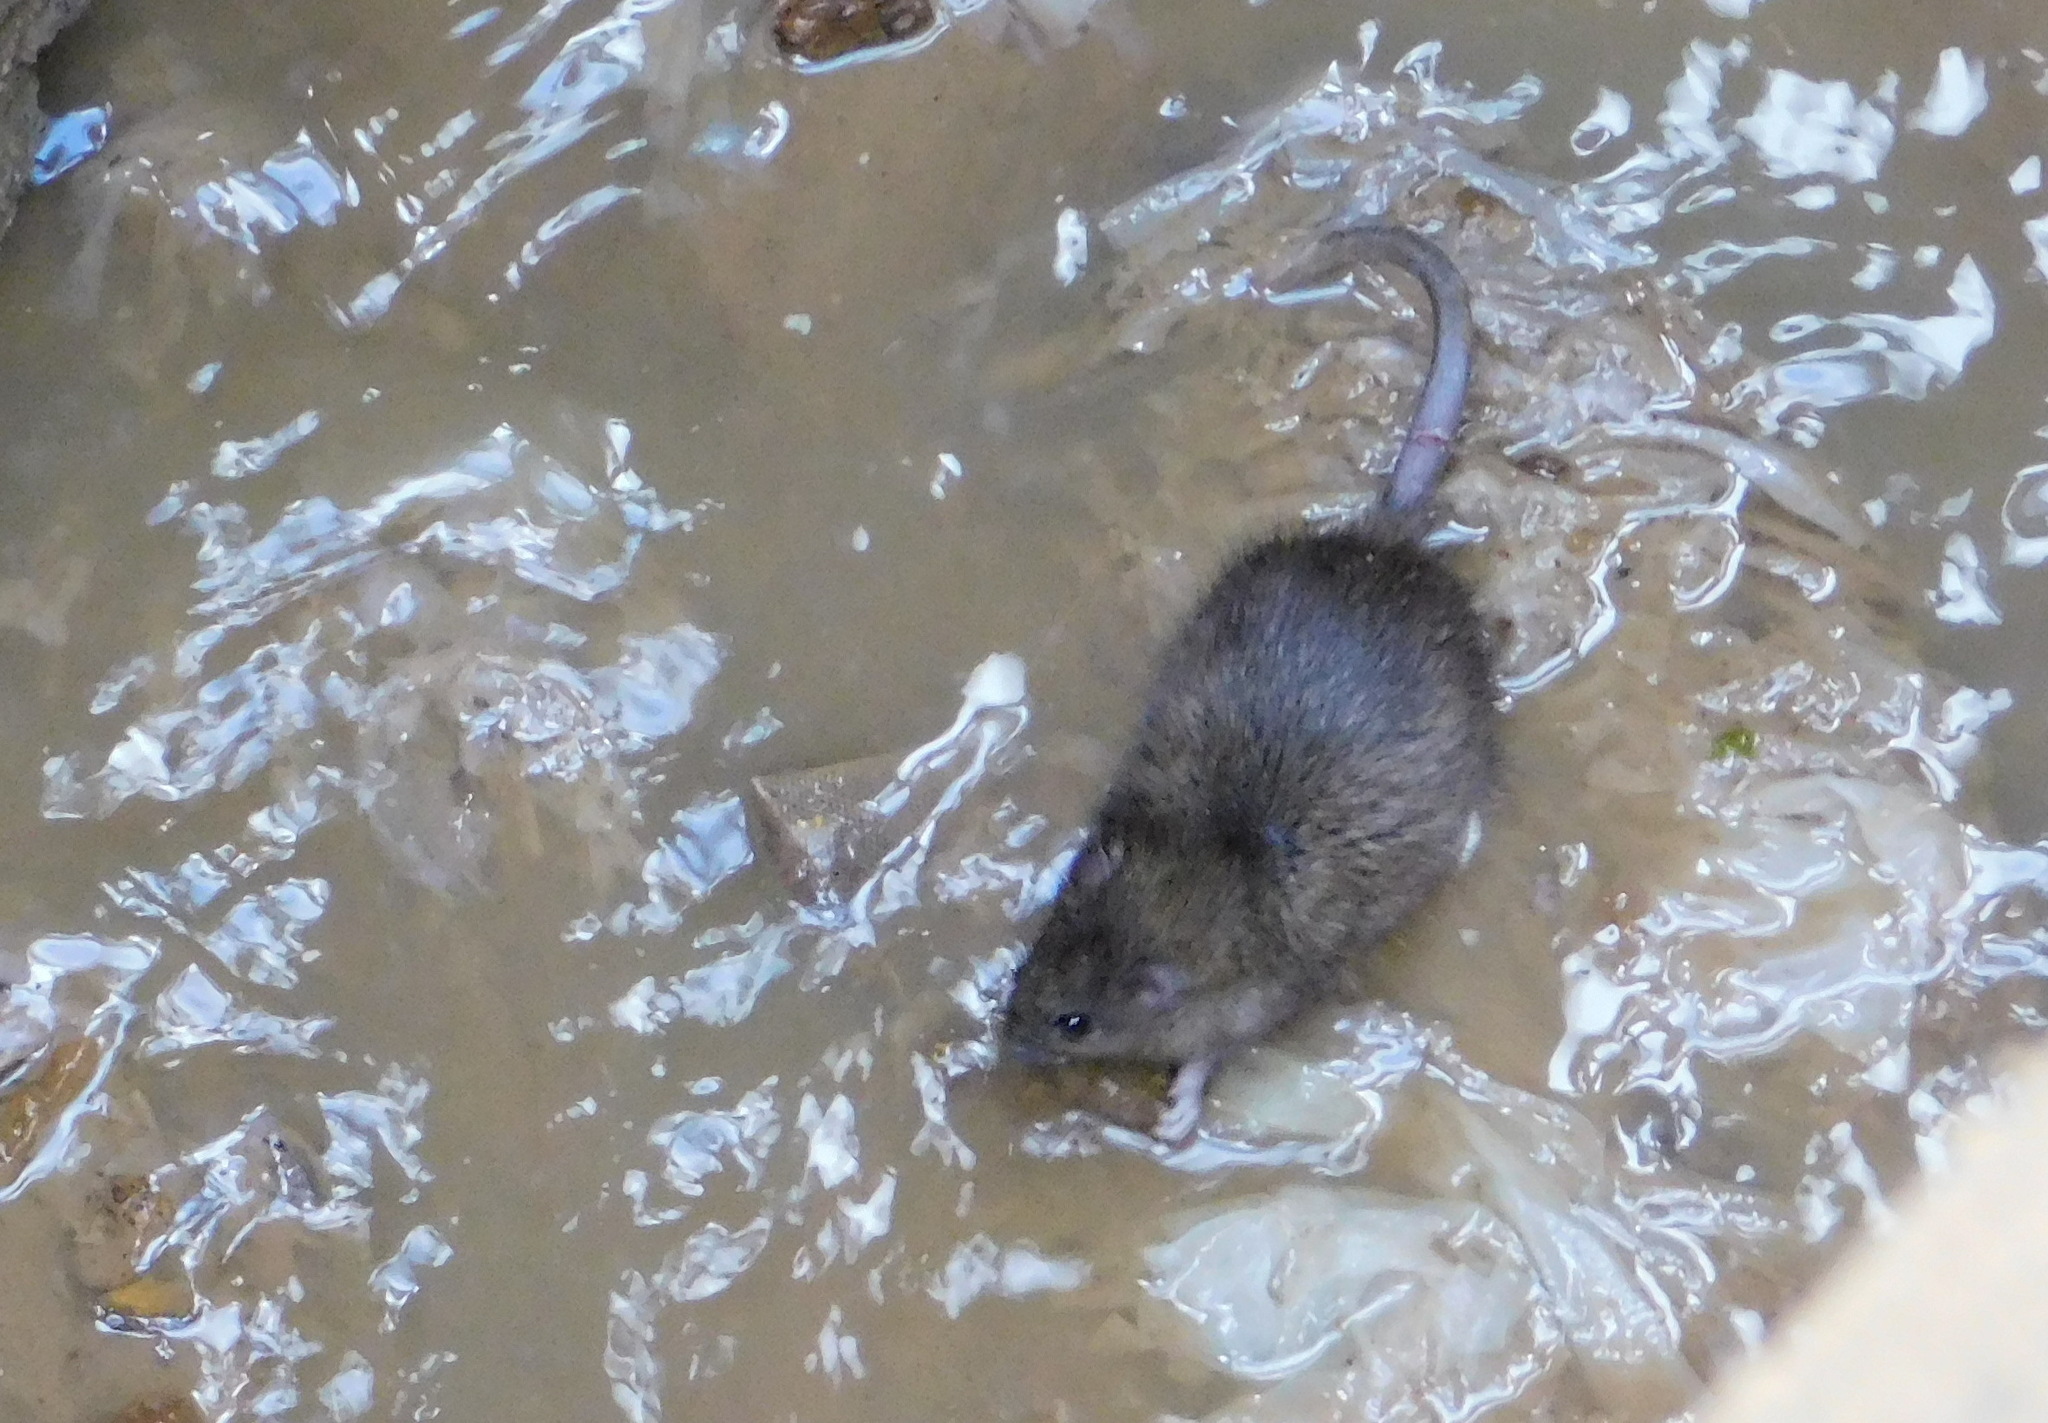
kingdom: Animalia
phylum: Chordata
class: Mammalia
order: Rodentia
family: Muridae
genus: Rattus
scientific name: Rattus norvegicus
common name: Brown rat
